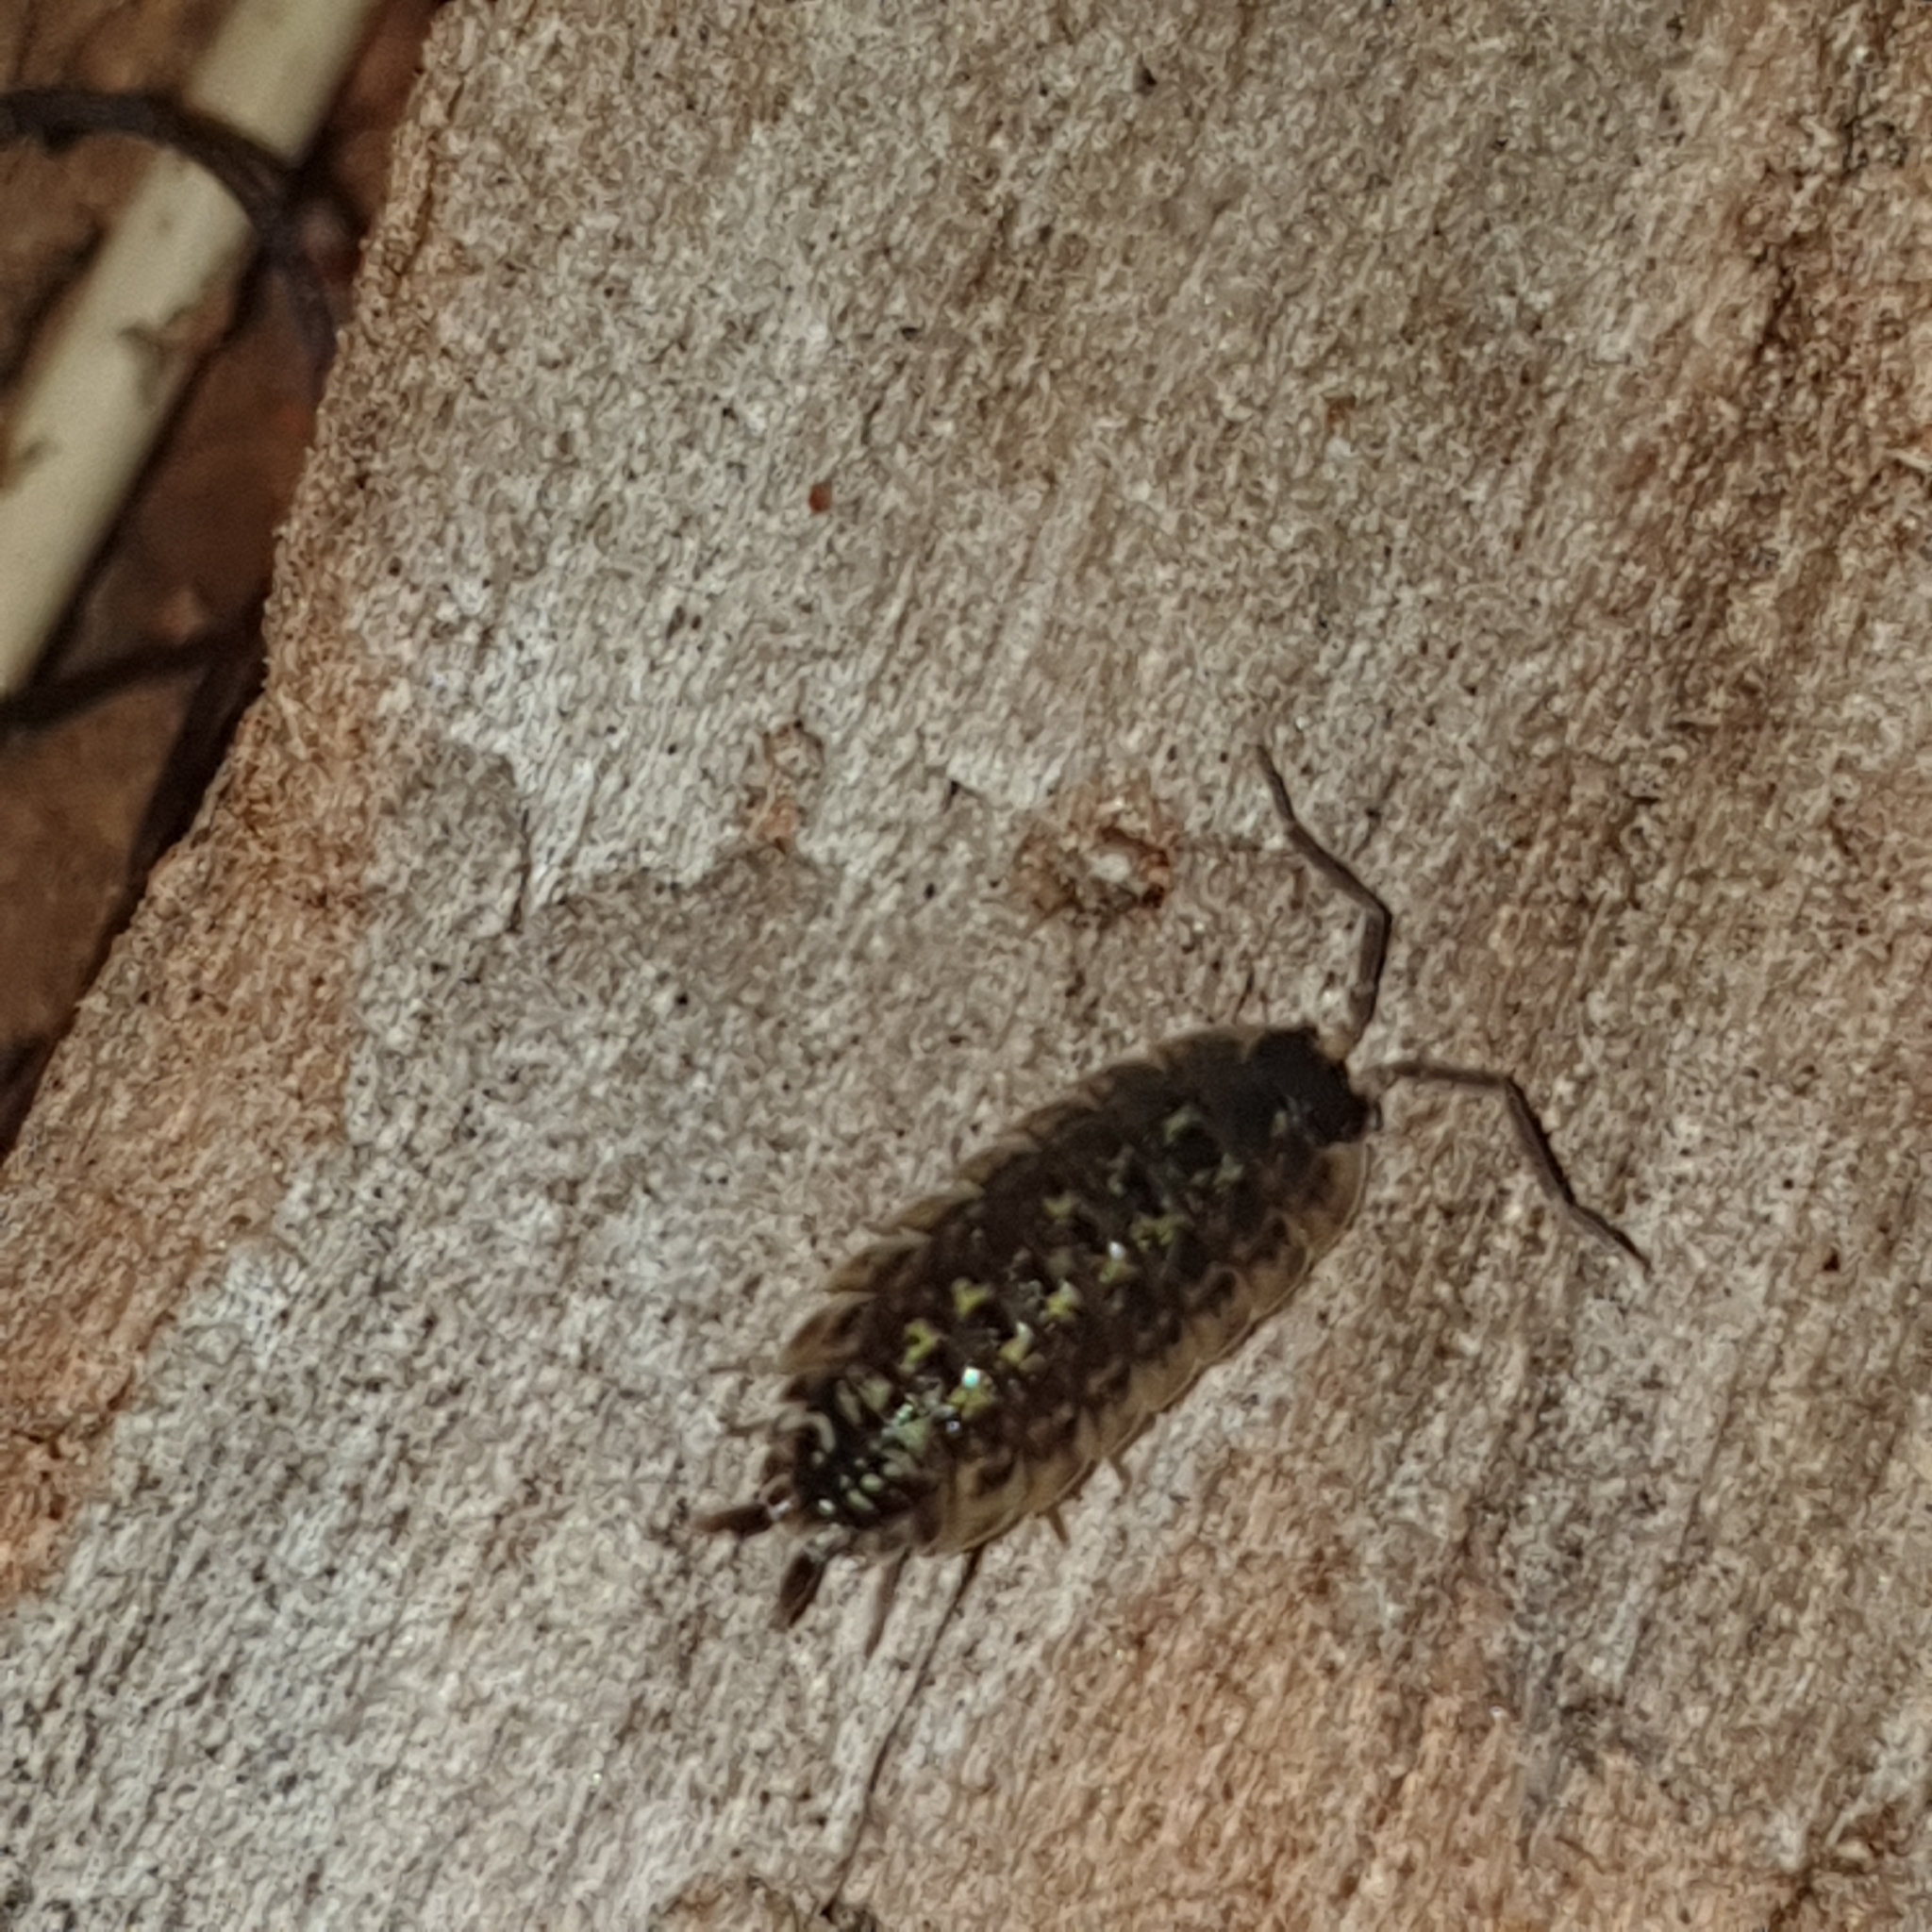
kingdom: Animalia
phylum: Arthropoda
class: Malacostraca
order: Isopoda
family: Porcellionidae
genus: Porcellio
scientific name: Porcellio spinicornis
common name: Painted woodlouse
